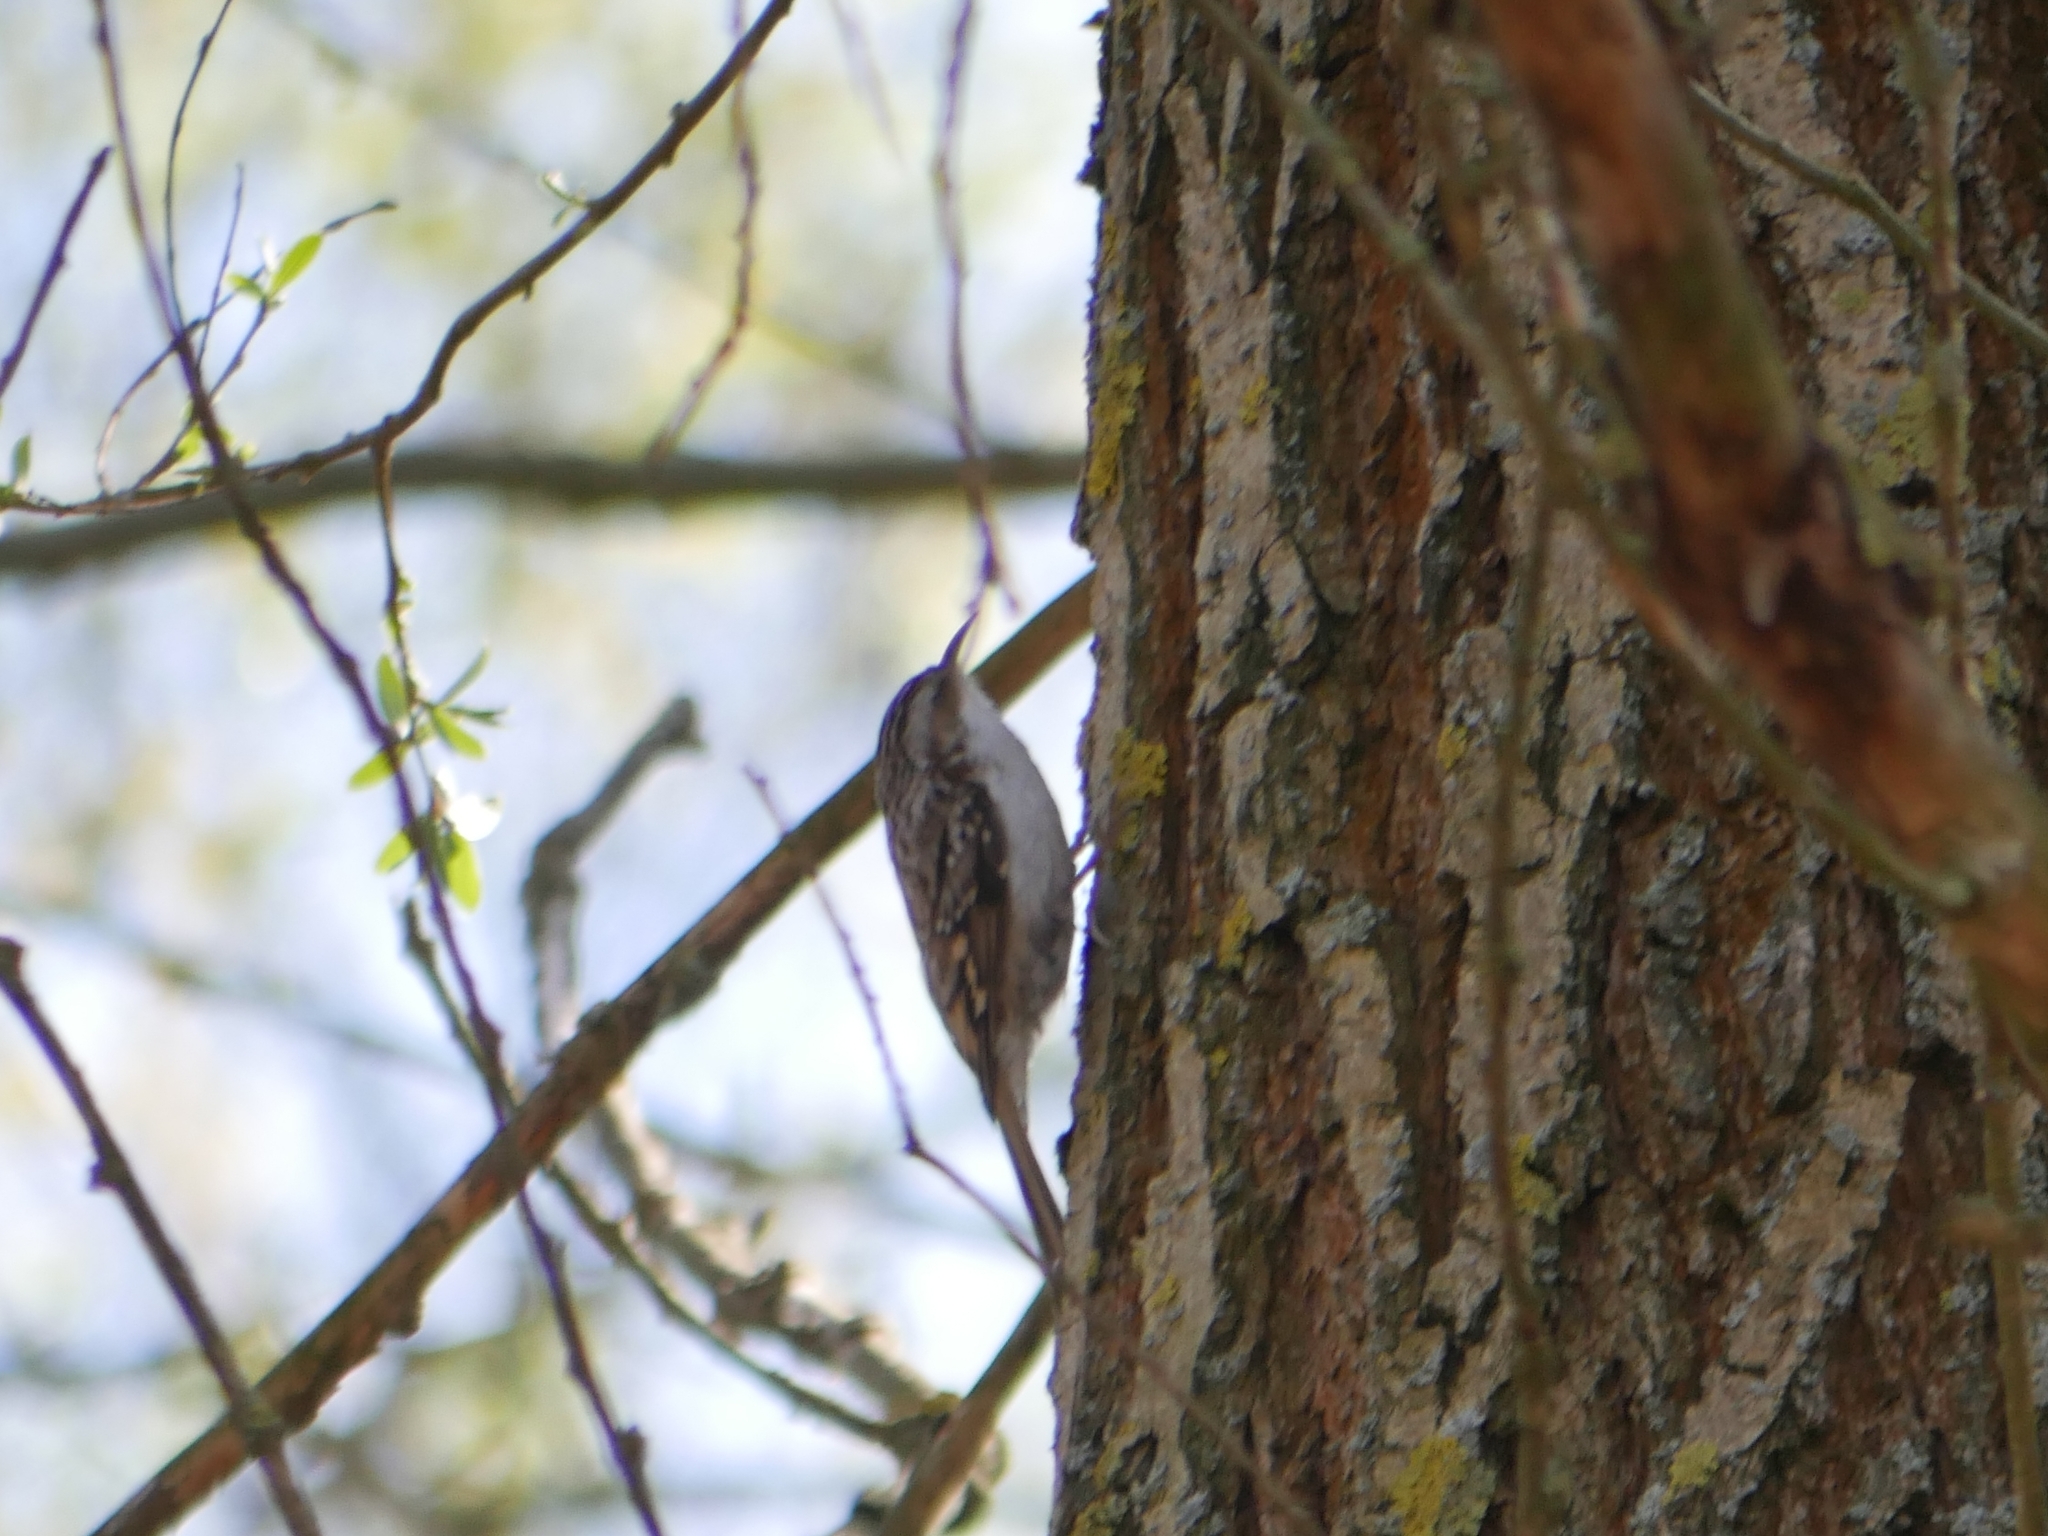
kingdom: Animalia
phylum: Chordata
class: Aves
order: Passeriformes
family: Certhiidae
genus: Certhia
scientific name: Certhia familiaris
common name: Eurasian treecreeper
